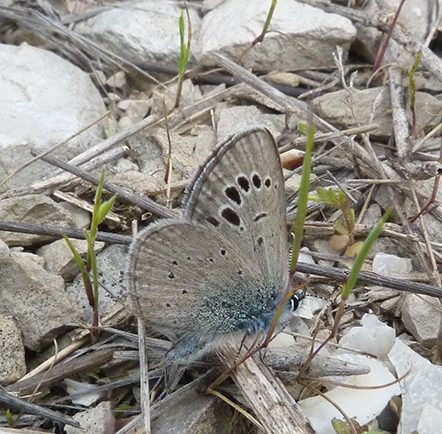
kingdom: Animalia
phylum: Arthropoda
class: Insecta
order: Lepidoptera
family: Lycaenidae
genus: Glaucopsyche
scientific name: Glaucopsyche melanops
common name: Black-eyed blue
